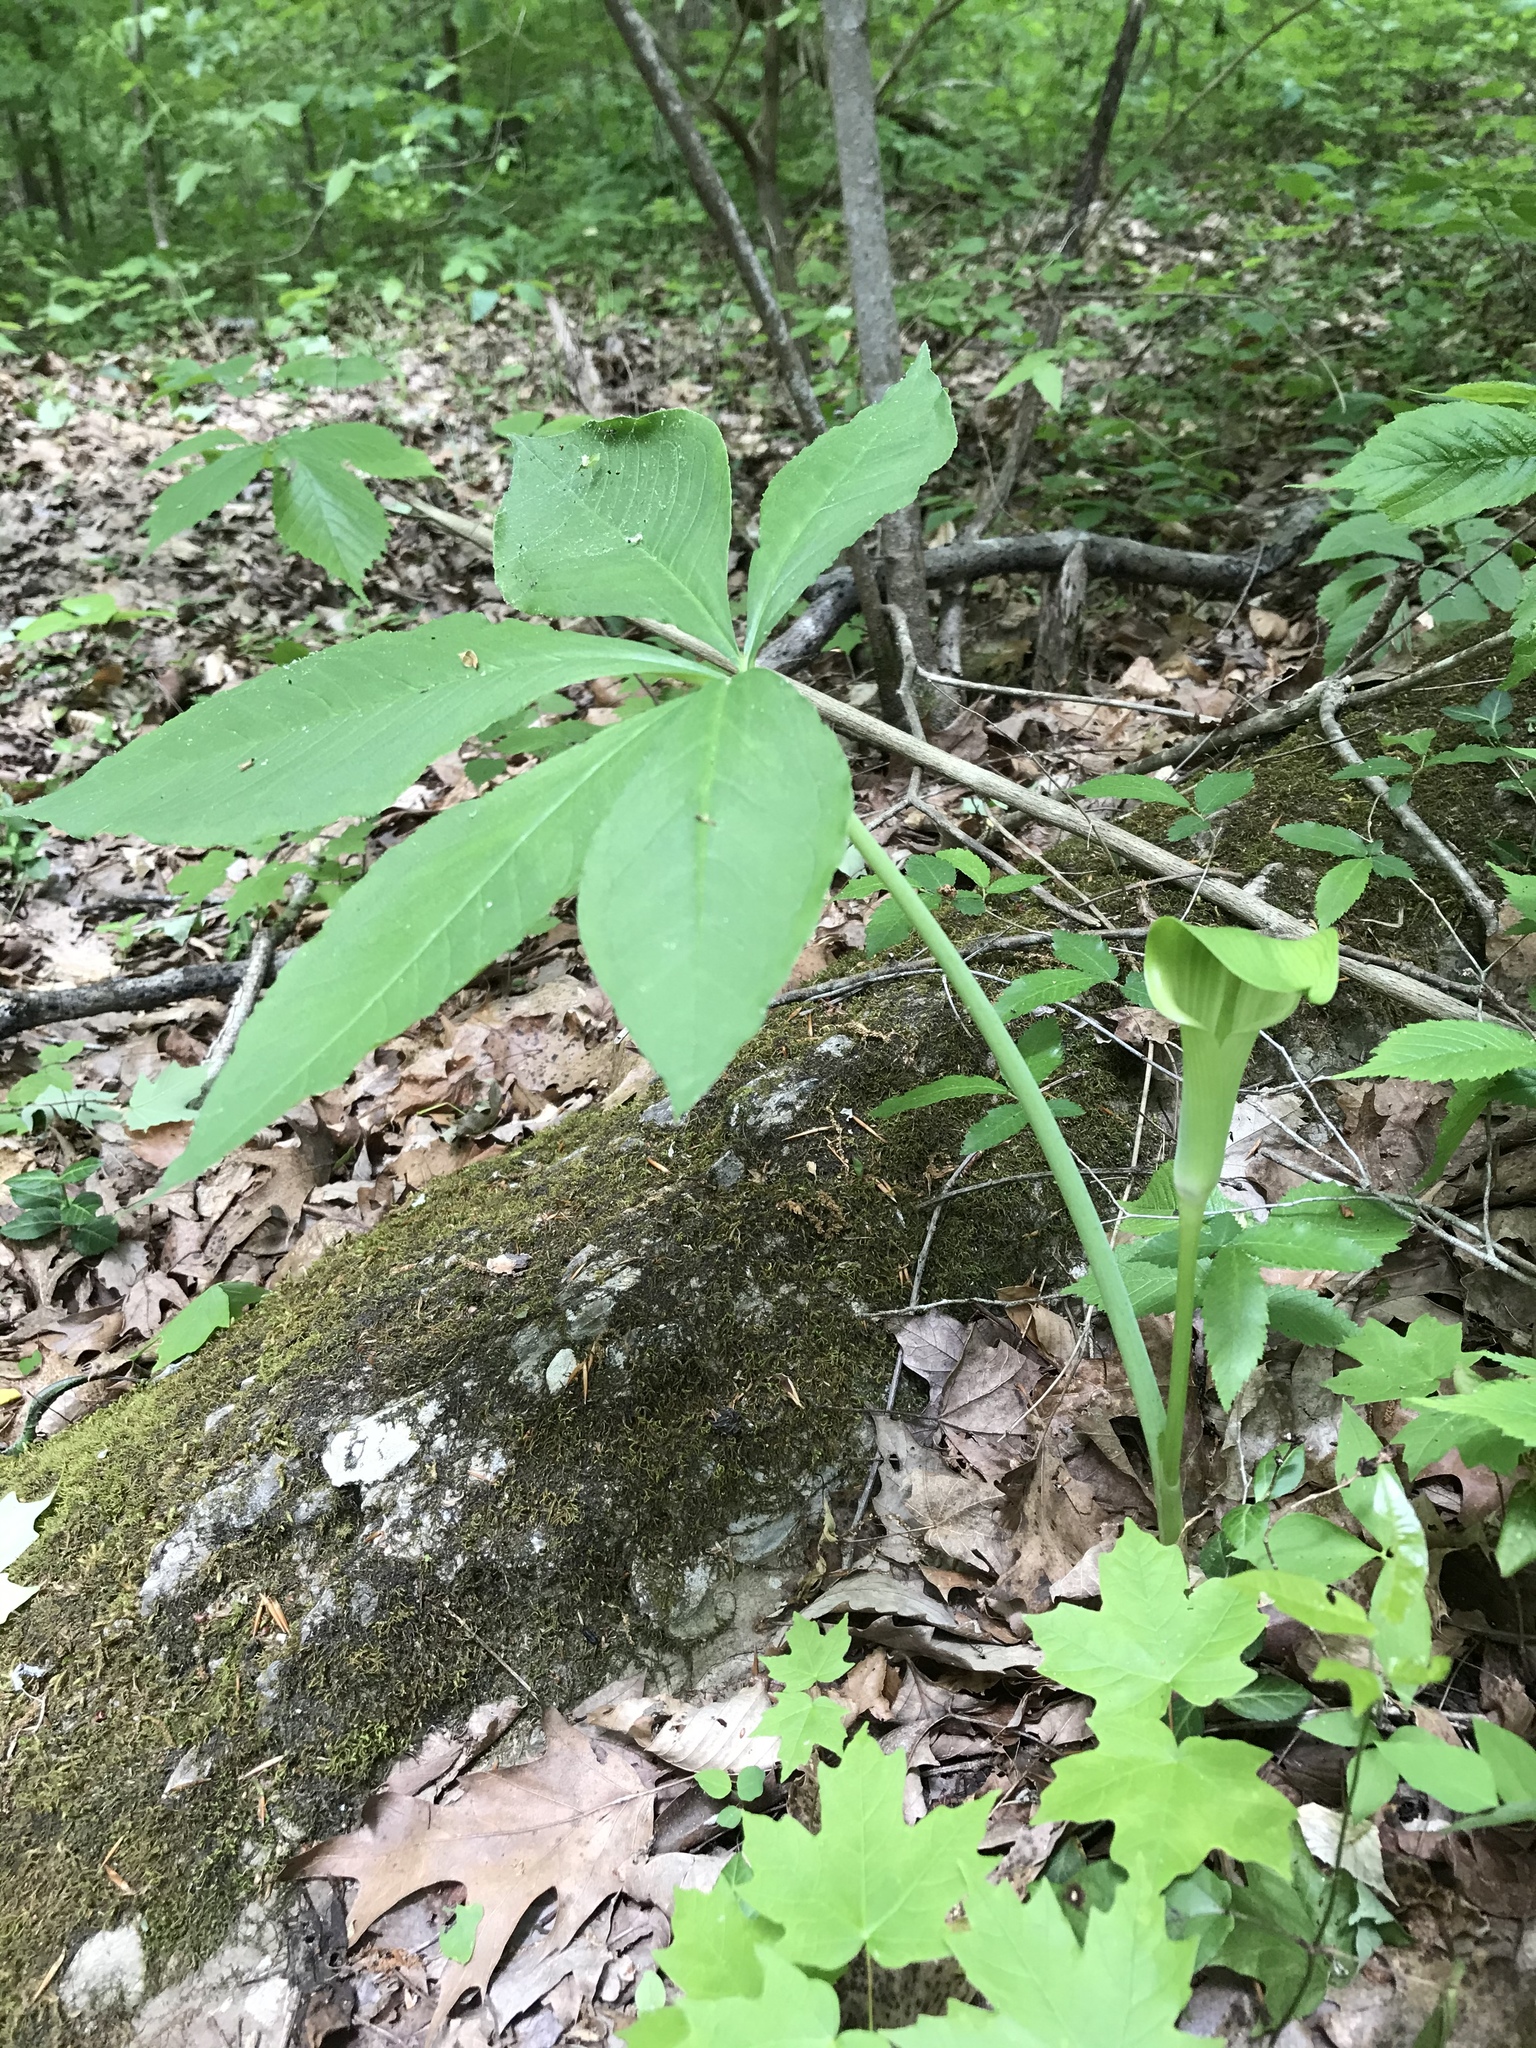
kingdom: Plantae
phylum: Tracheophyta
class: Liliopsida
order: Alismatales
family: Araceae
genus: Arisaema
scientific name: Arisaema quinatum
